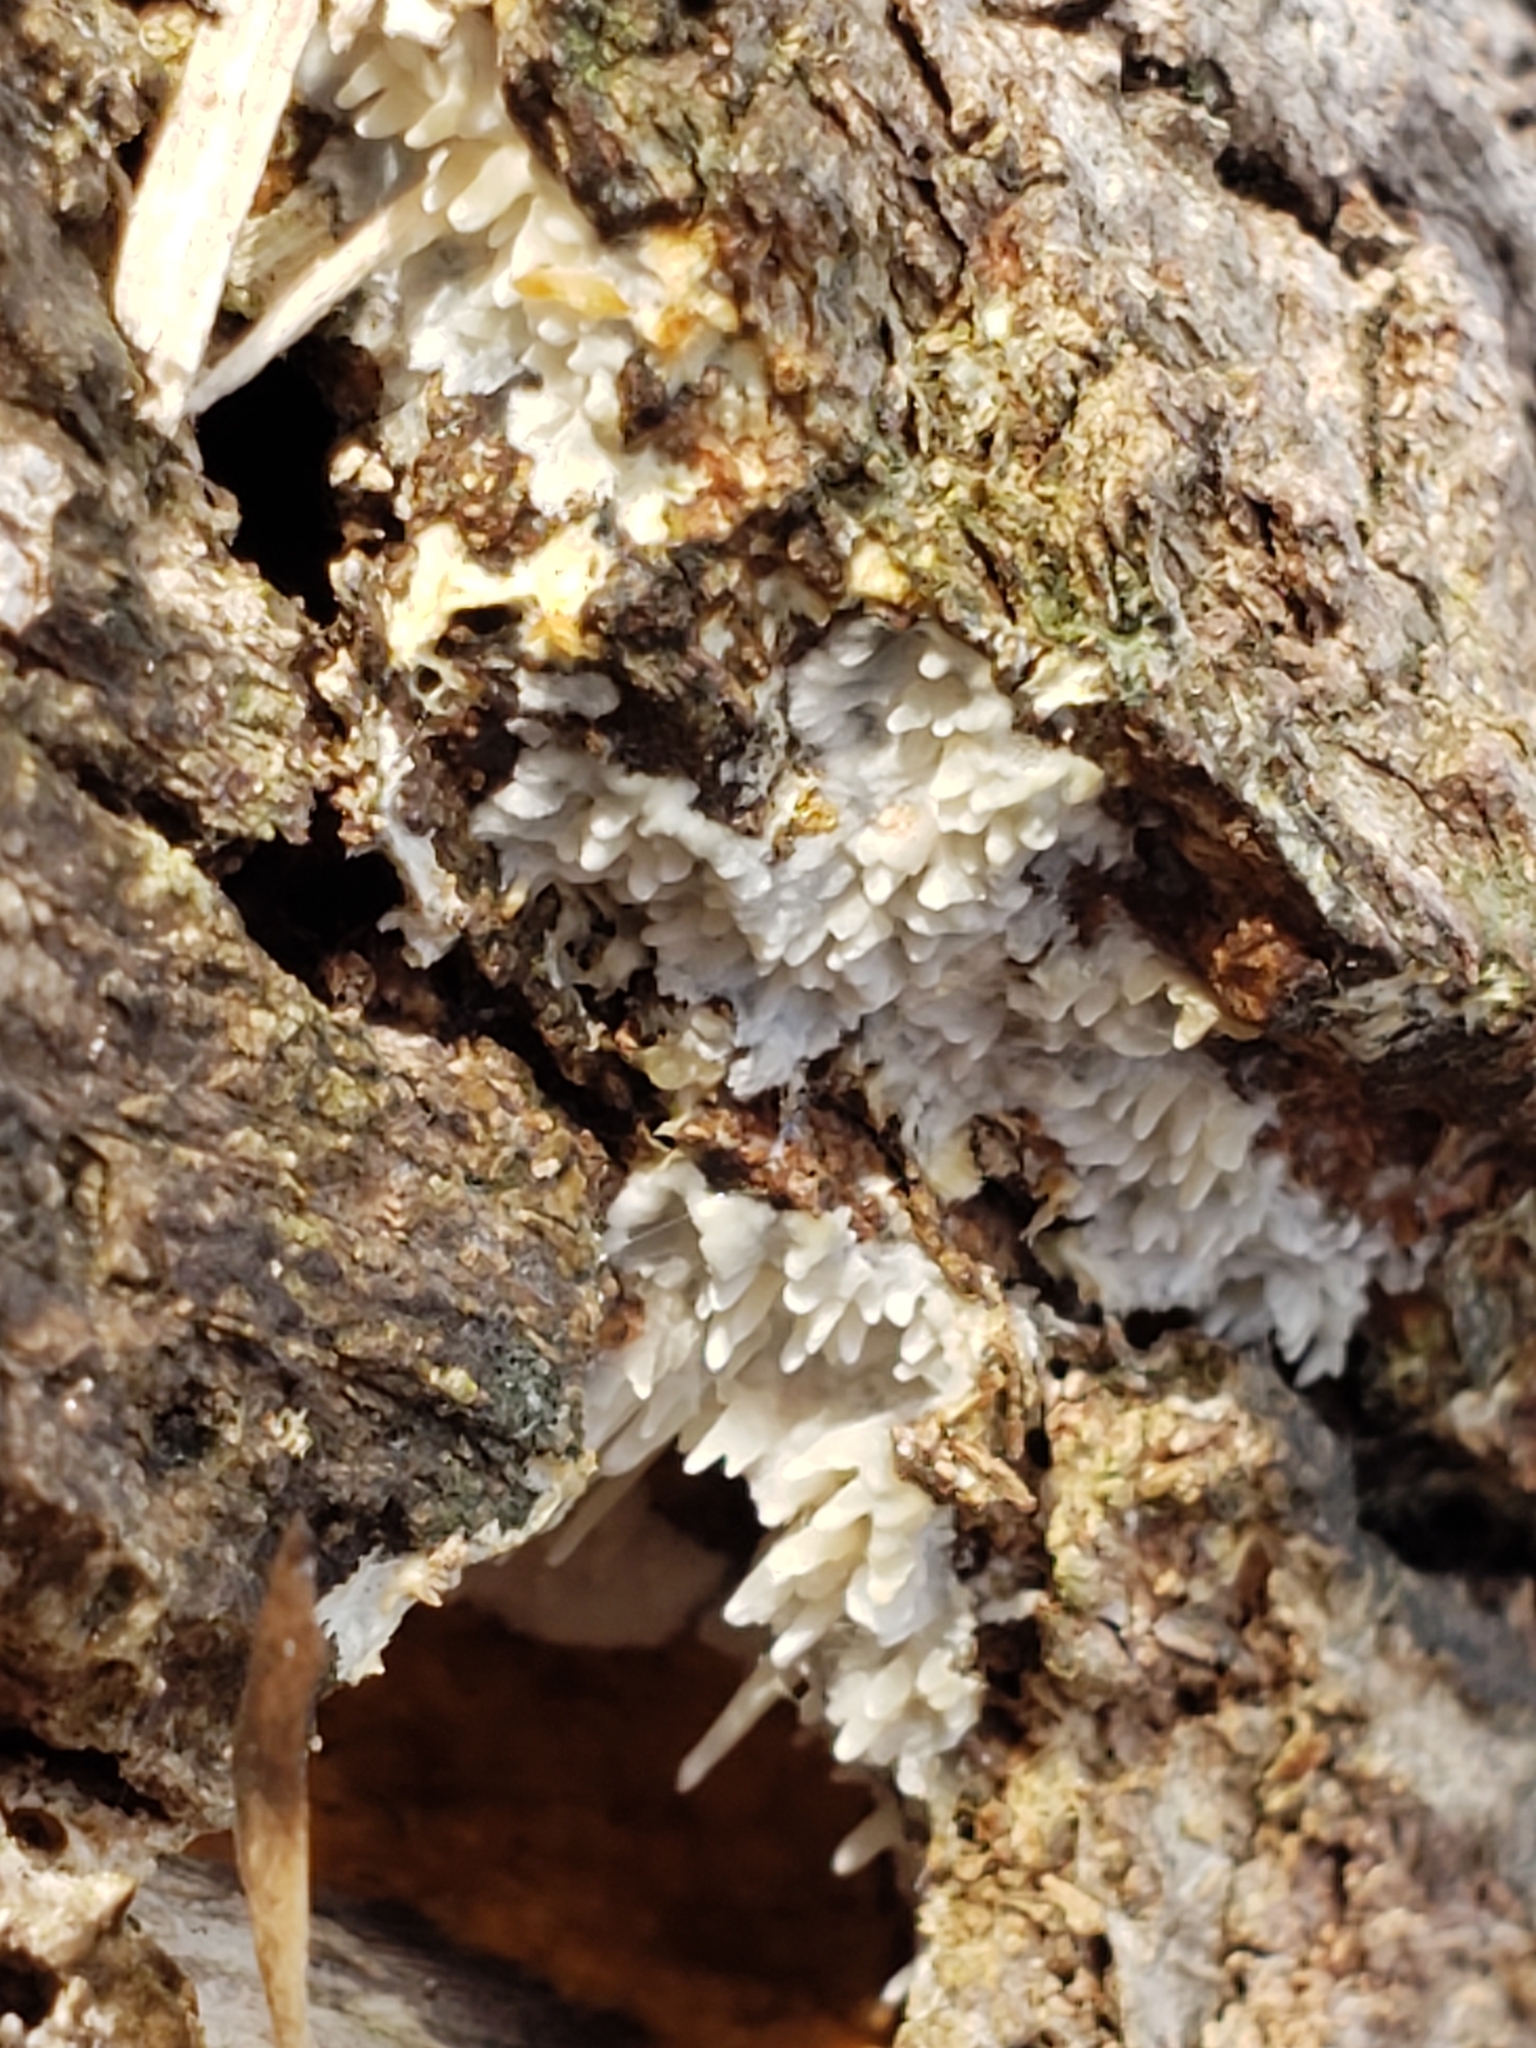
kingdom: Fungi
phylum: Basidiomycota
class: Agaricomycetes
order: Agaricales
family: Radulomycetaceae
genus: Radulomyces
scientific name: Radulomyces copelandii
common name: Asian beauty
